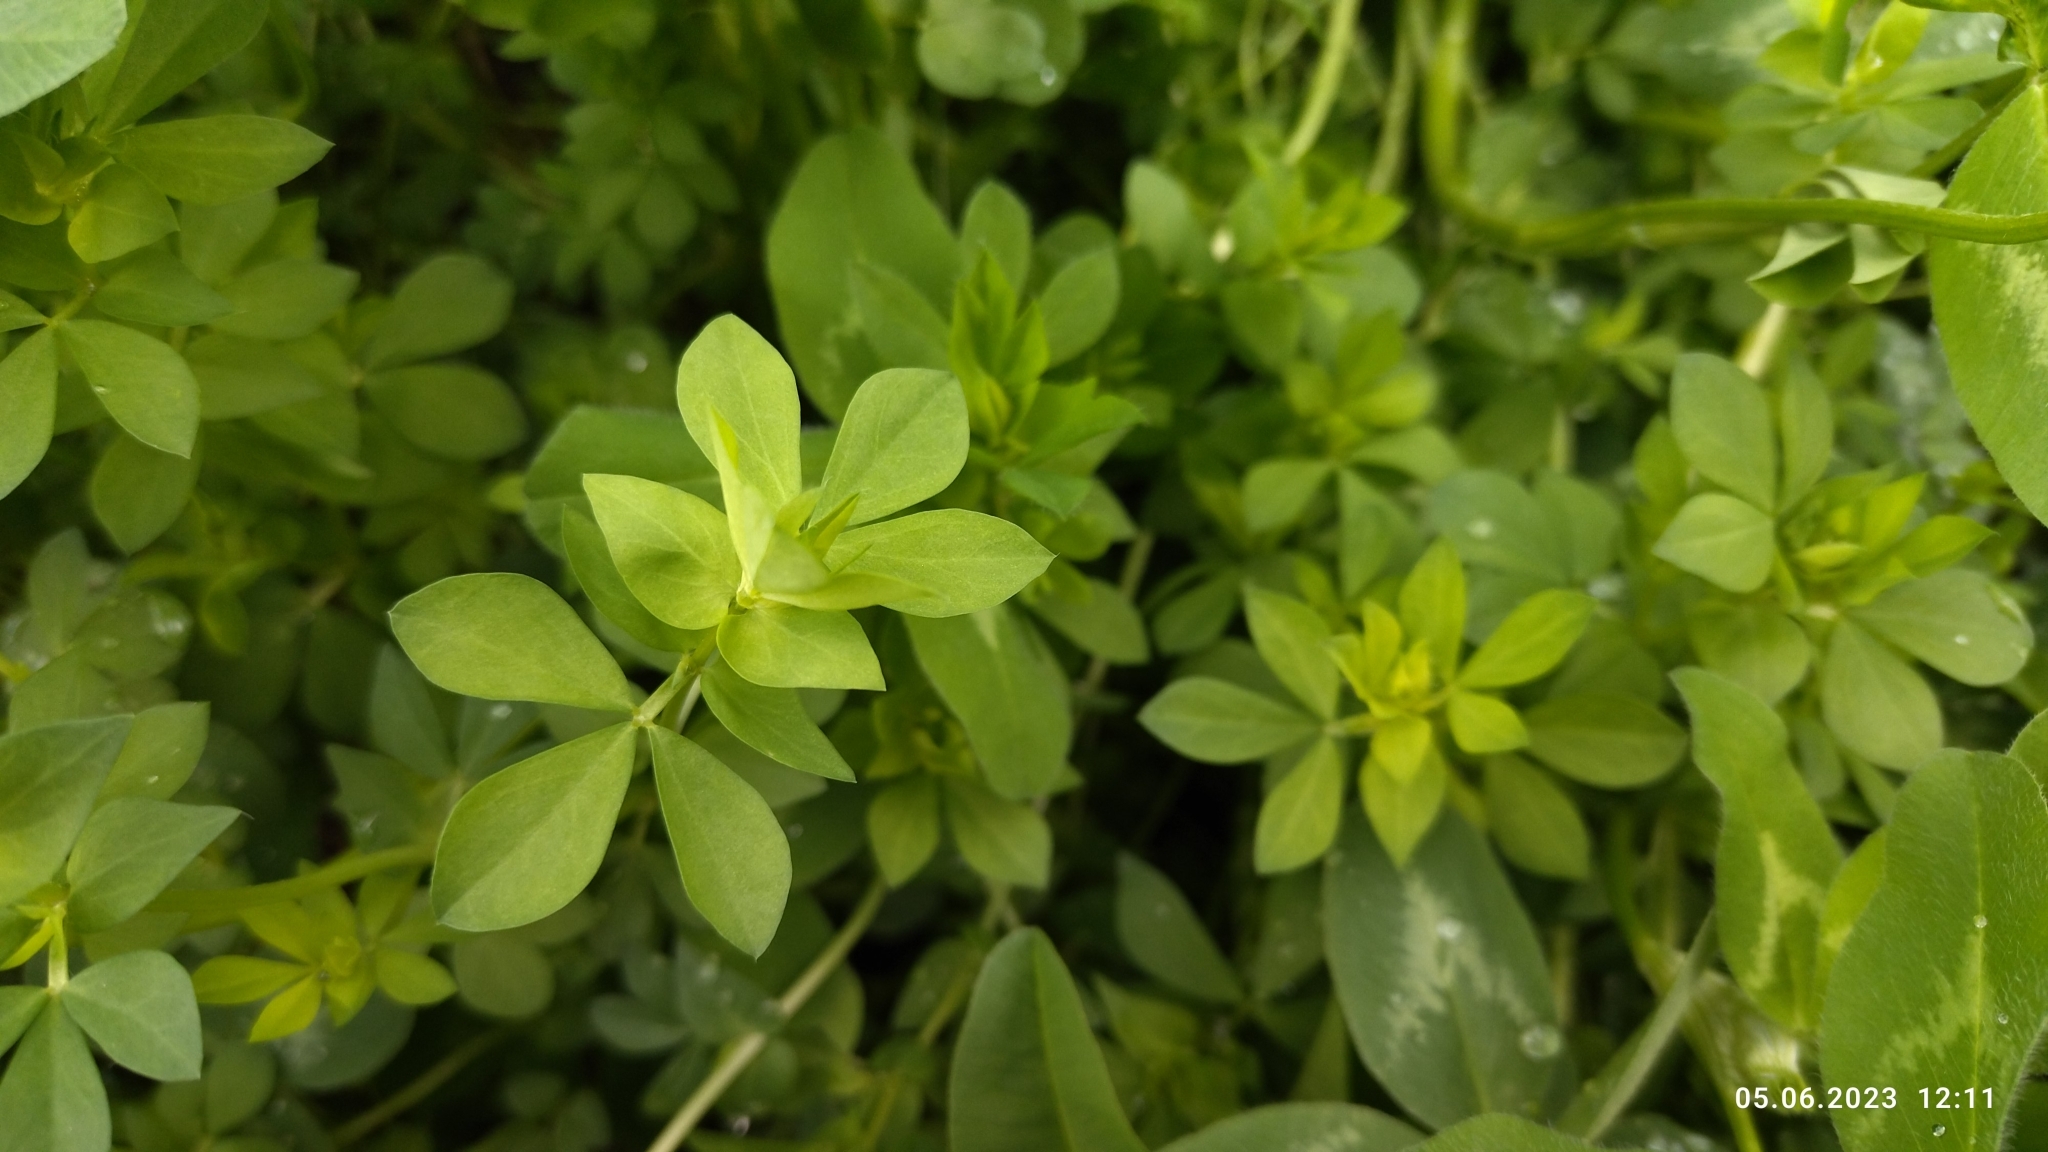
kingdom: Plantae
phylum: Tracheophyta
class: Magnoliopsida
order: Fabales
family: Fabaceae
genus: Lotus
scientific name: Lotus corniculatus
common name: Common bird's-foot-trefoil
